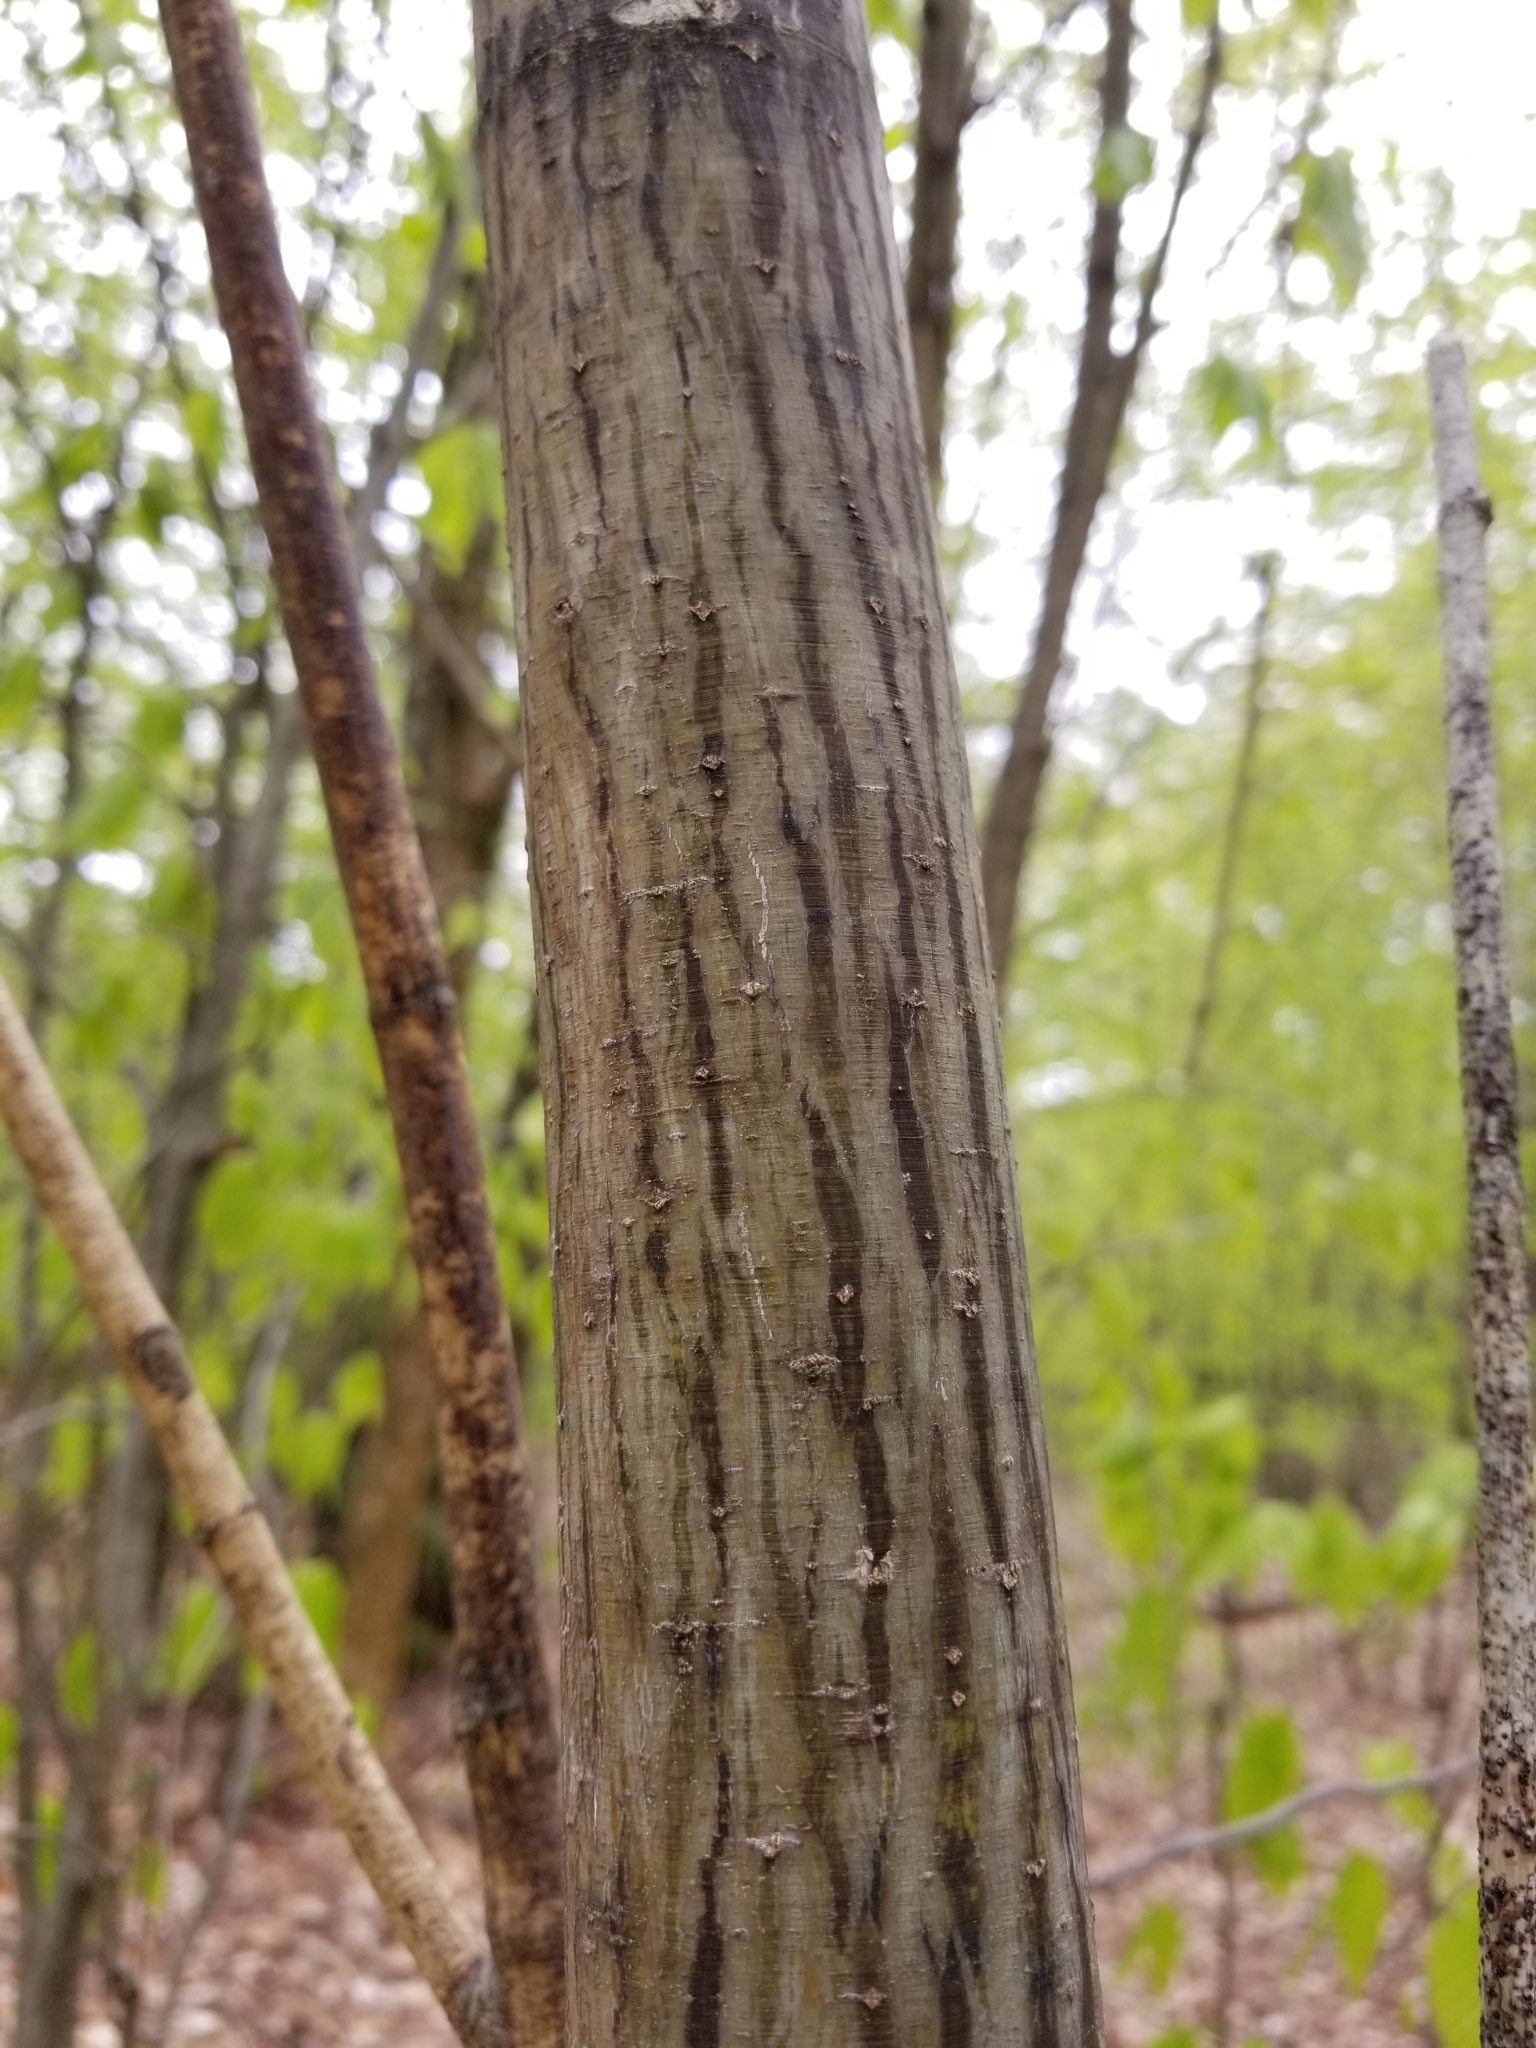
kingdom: Plantae
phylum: Tracheophyta
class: Magnoliopsida
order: Sapindales
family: Sapindaceae
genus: Acer
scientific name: Acer pensylvanicum
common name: Moosewood
